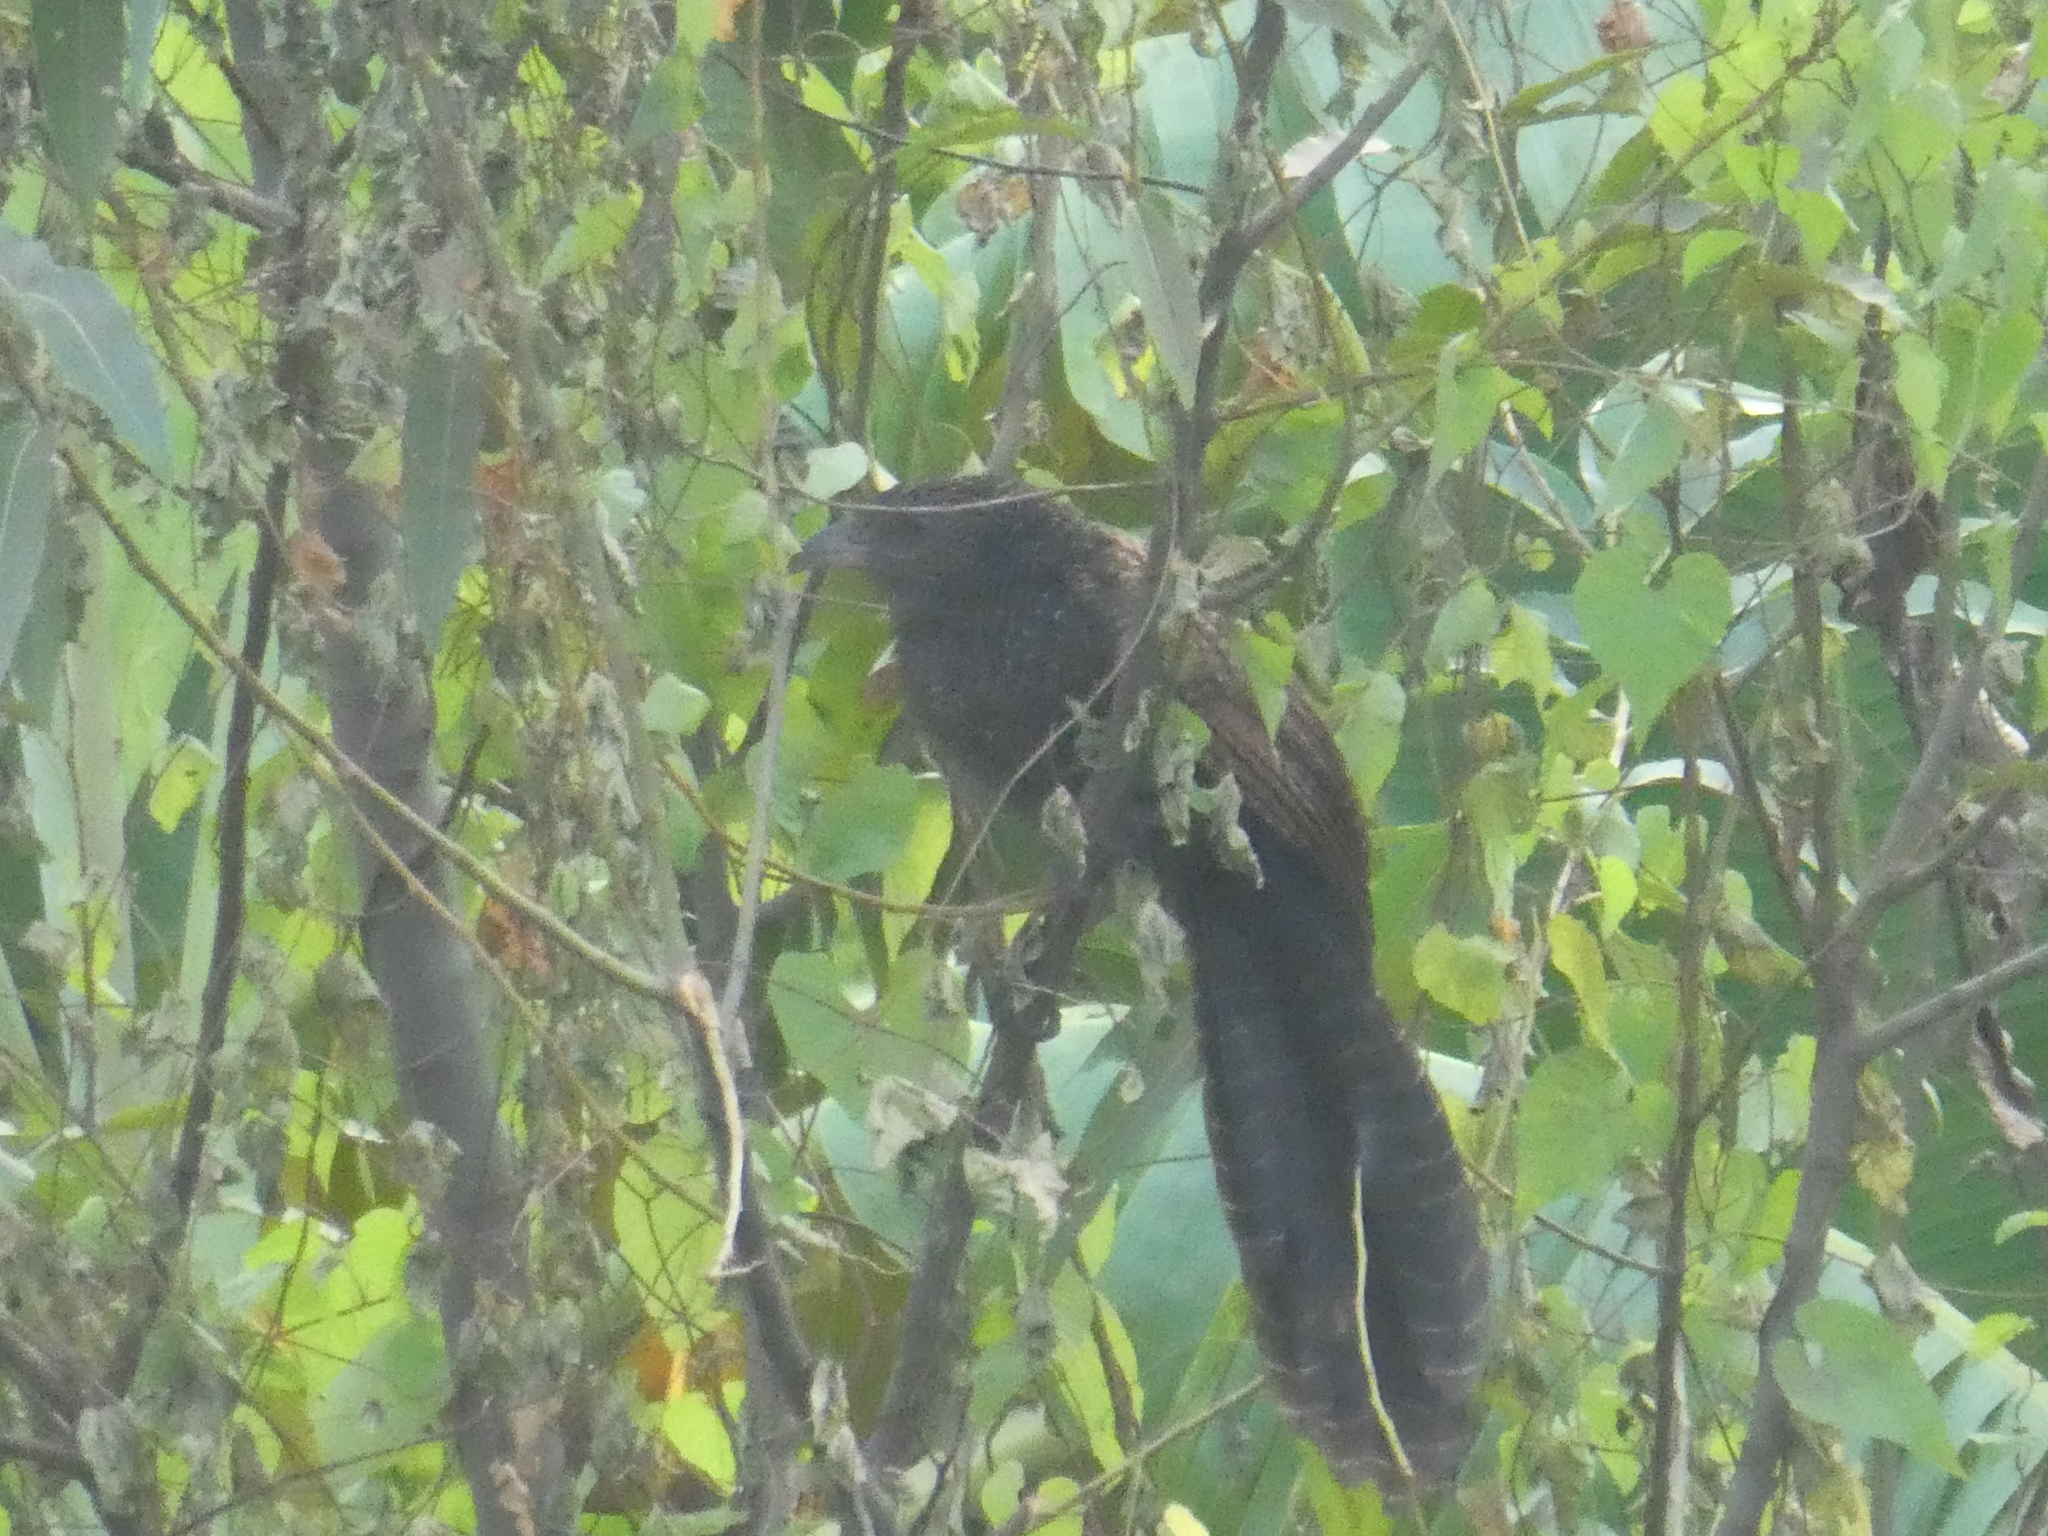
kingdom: Animalia
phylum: Chordata
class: Aves
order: Cuculiformes
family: Cuculidae
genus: Centropus
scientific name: Centropus sinensis
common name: Greater coucal
